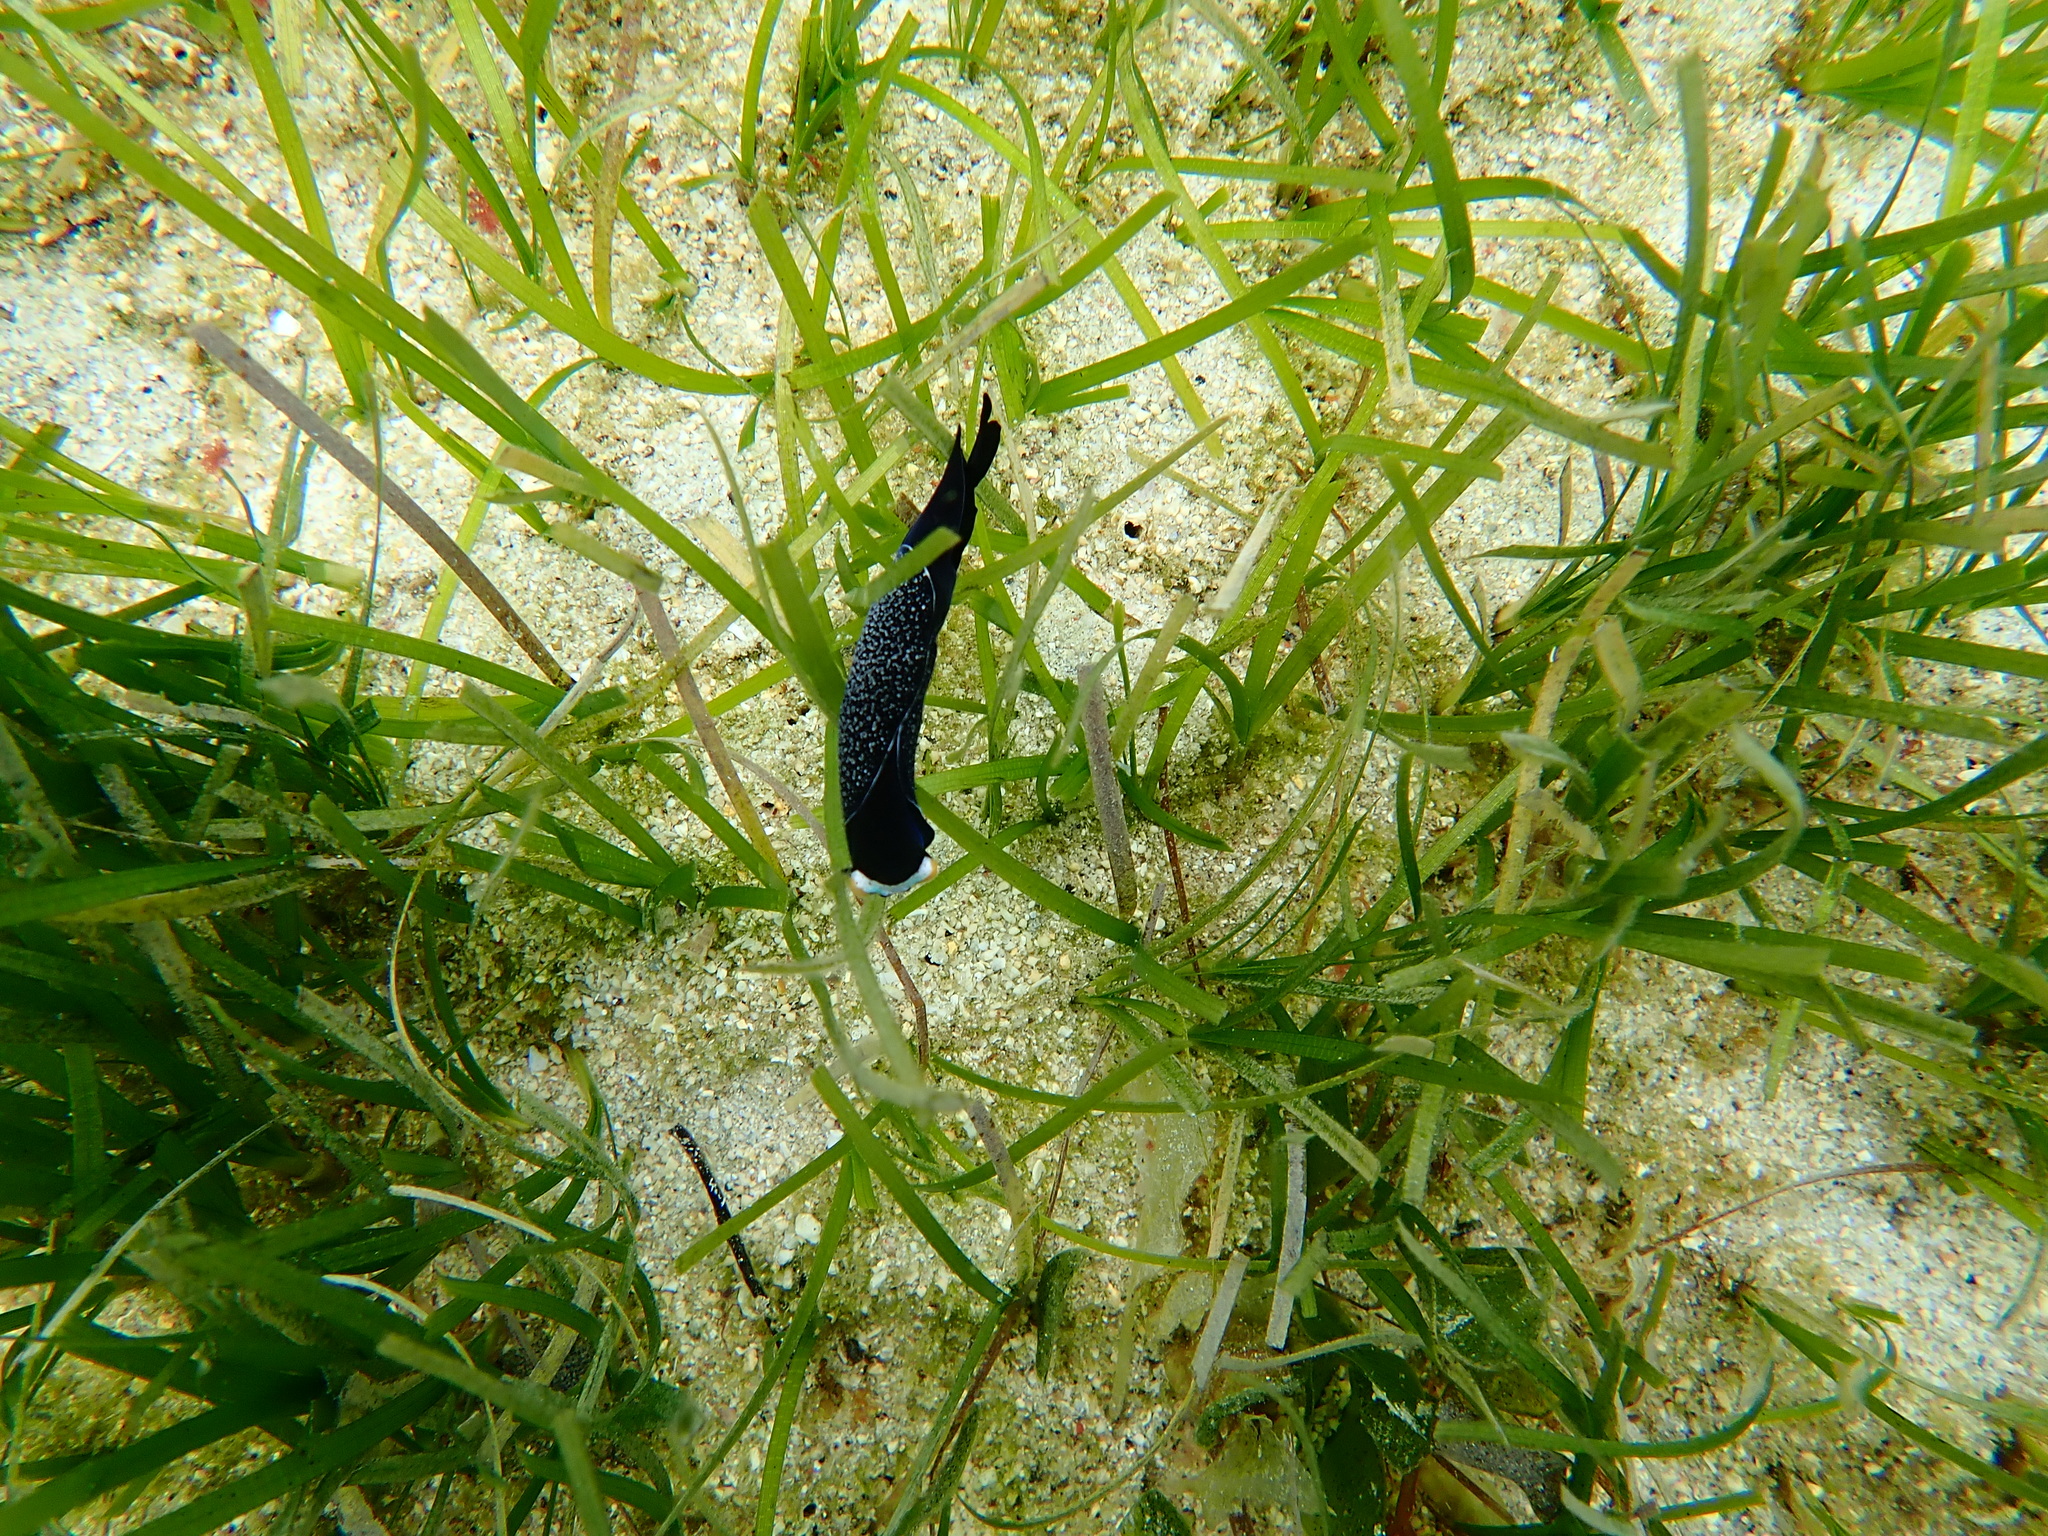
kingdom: Animalia
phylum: Mollusca
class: Gastropoda
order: Cephalaspidea
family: Aglajidae
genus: Mariaglaja
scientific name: Mariaglaja inornata
